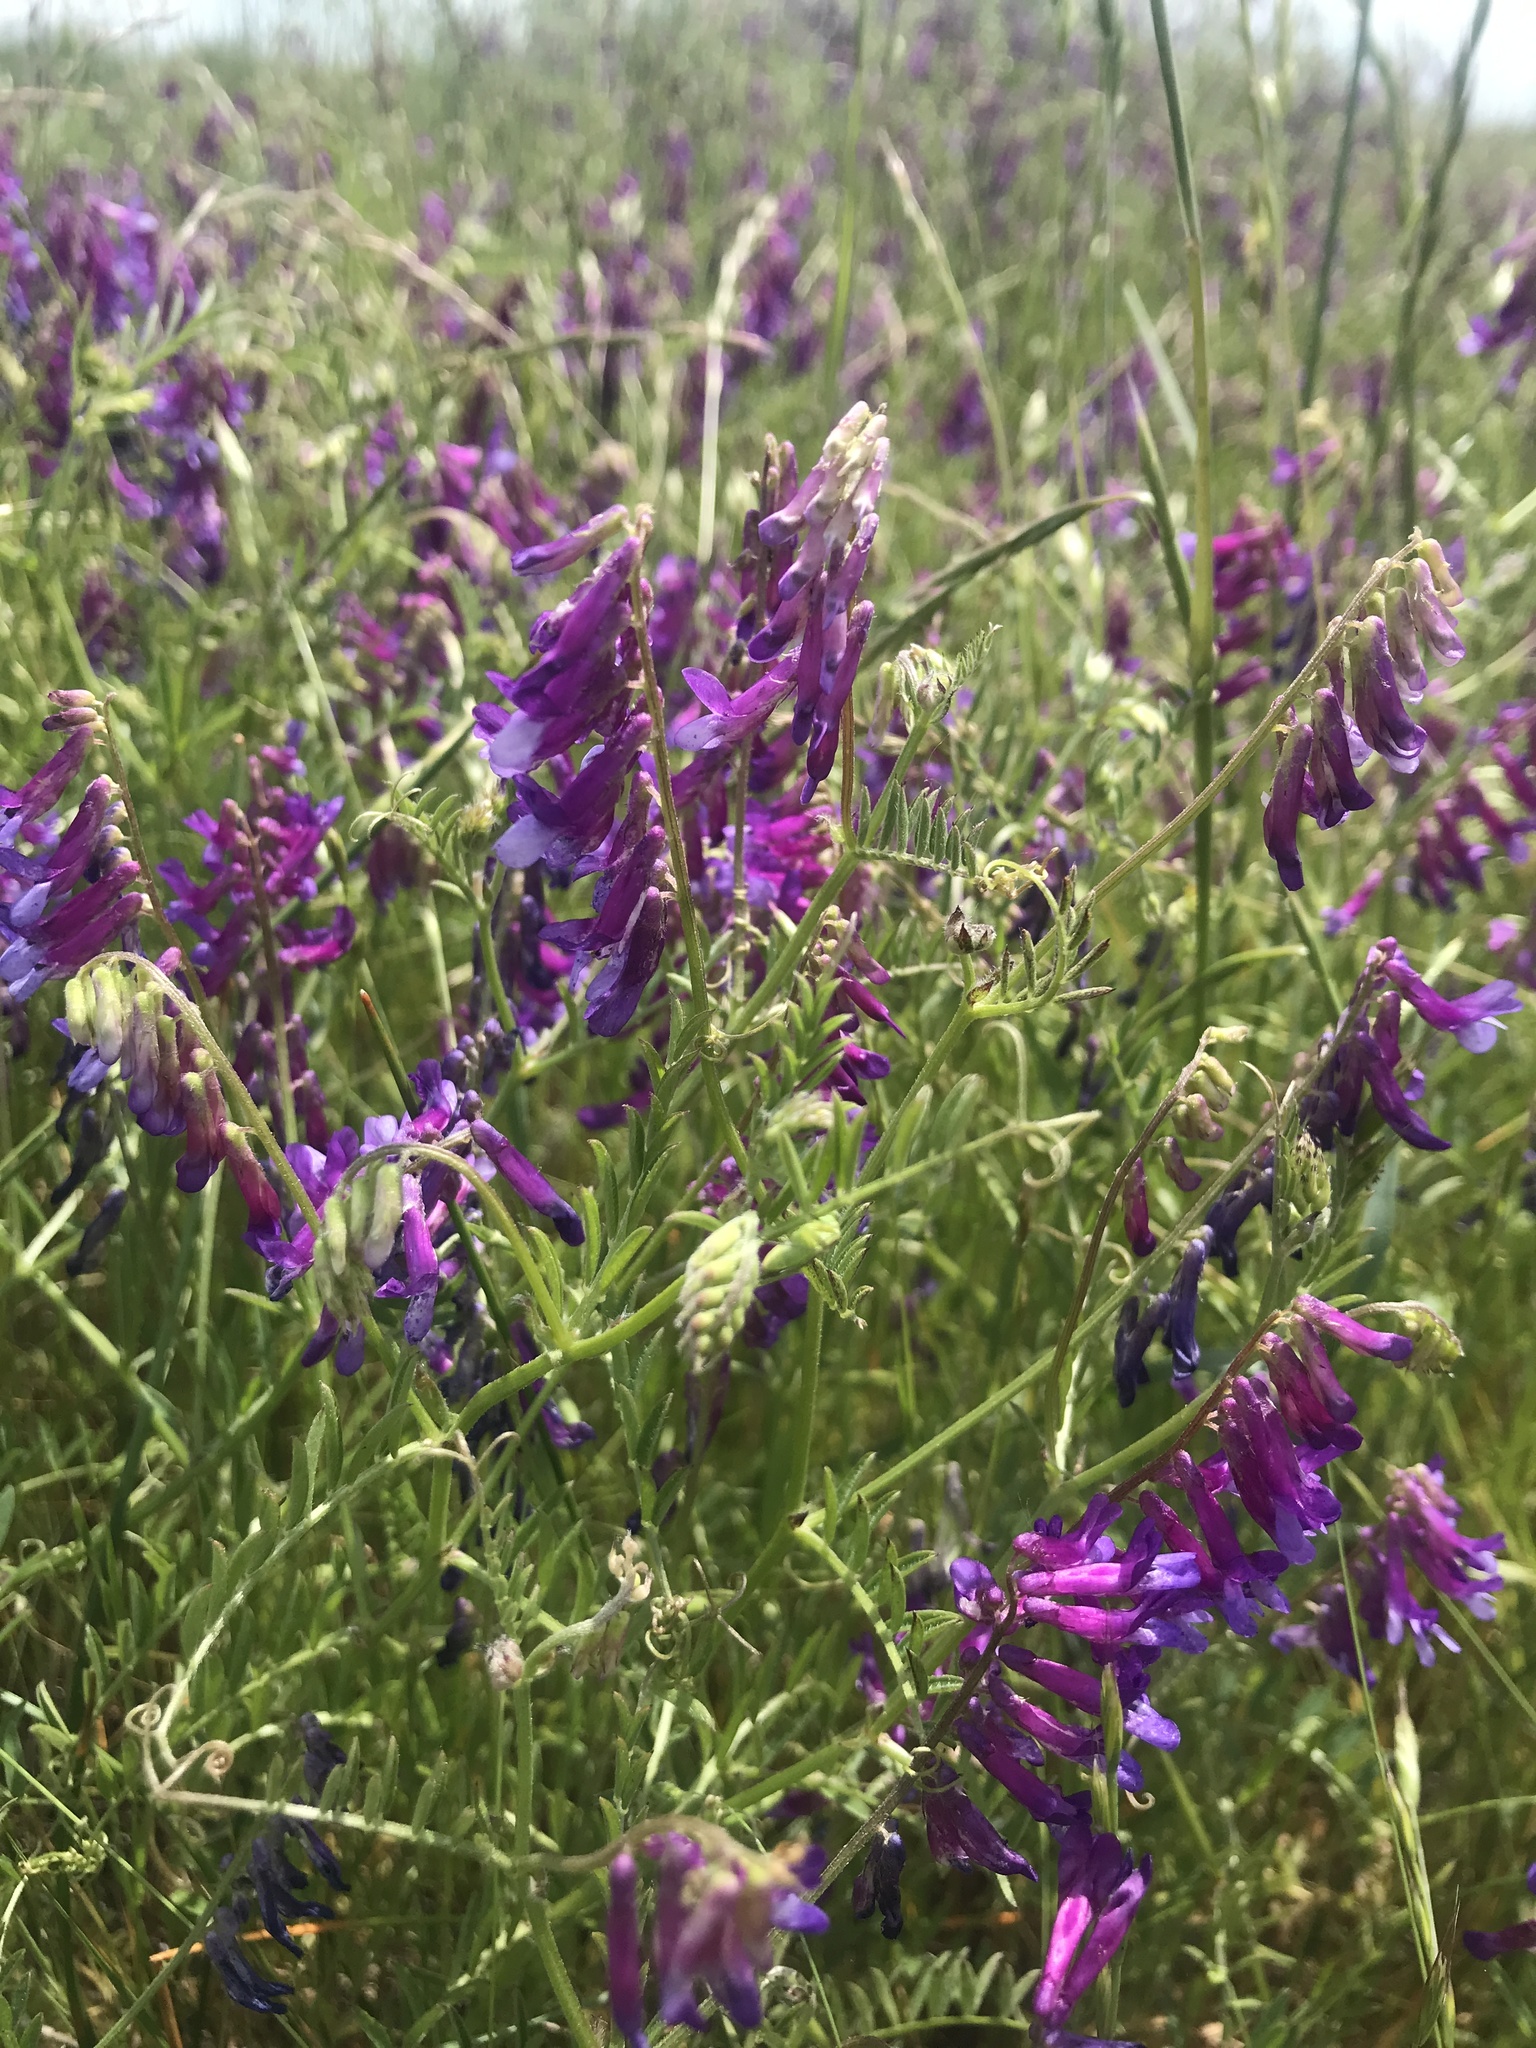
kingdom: Plantae
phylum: Tracheophyta
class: Magnoliopsida
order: Fabales
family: Fabaceae
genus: Vicia
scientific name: Vicia villosa
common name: Fodder vetch
